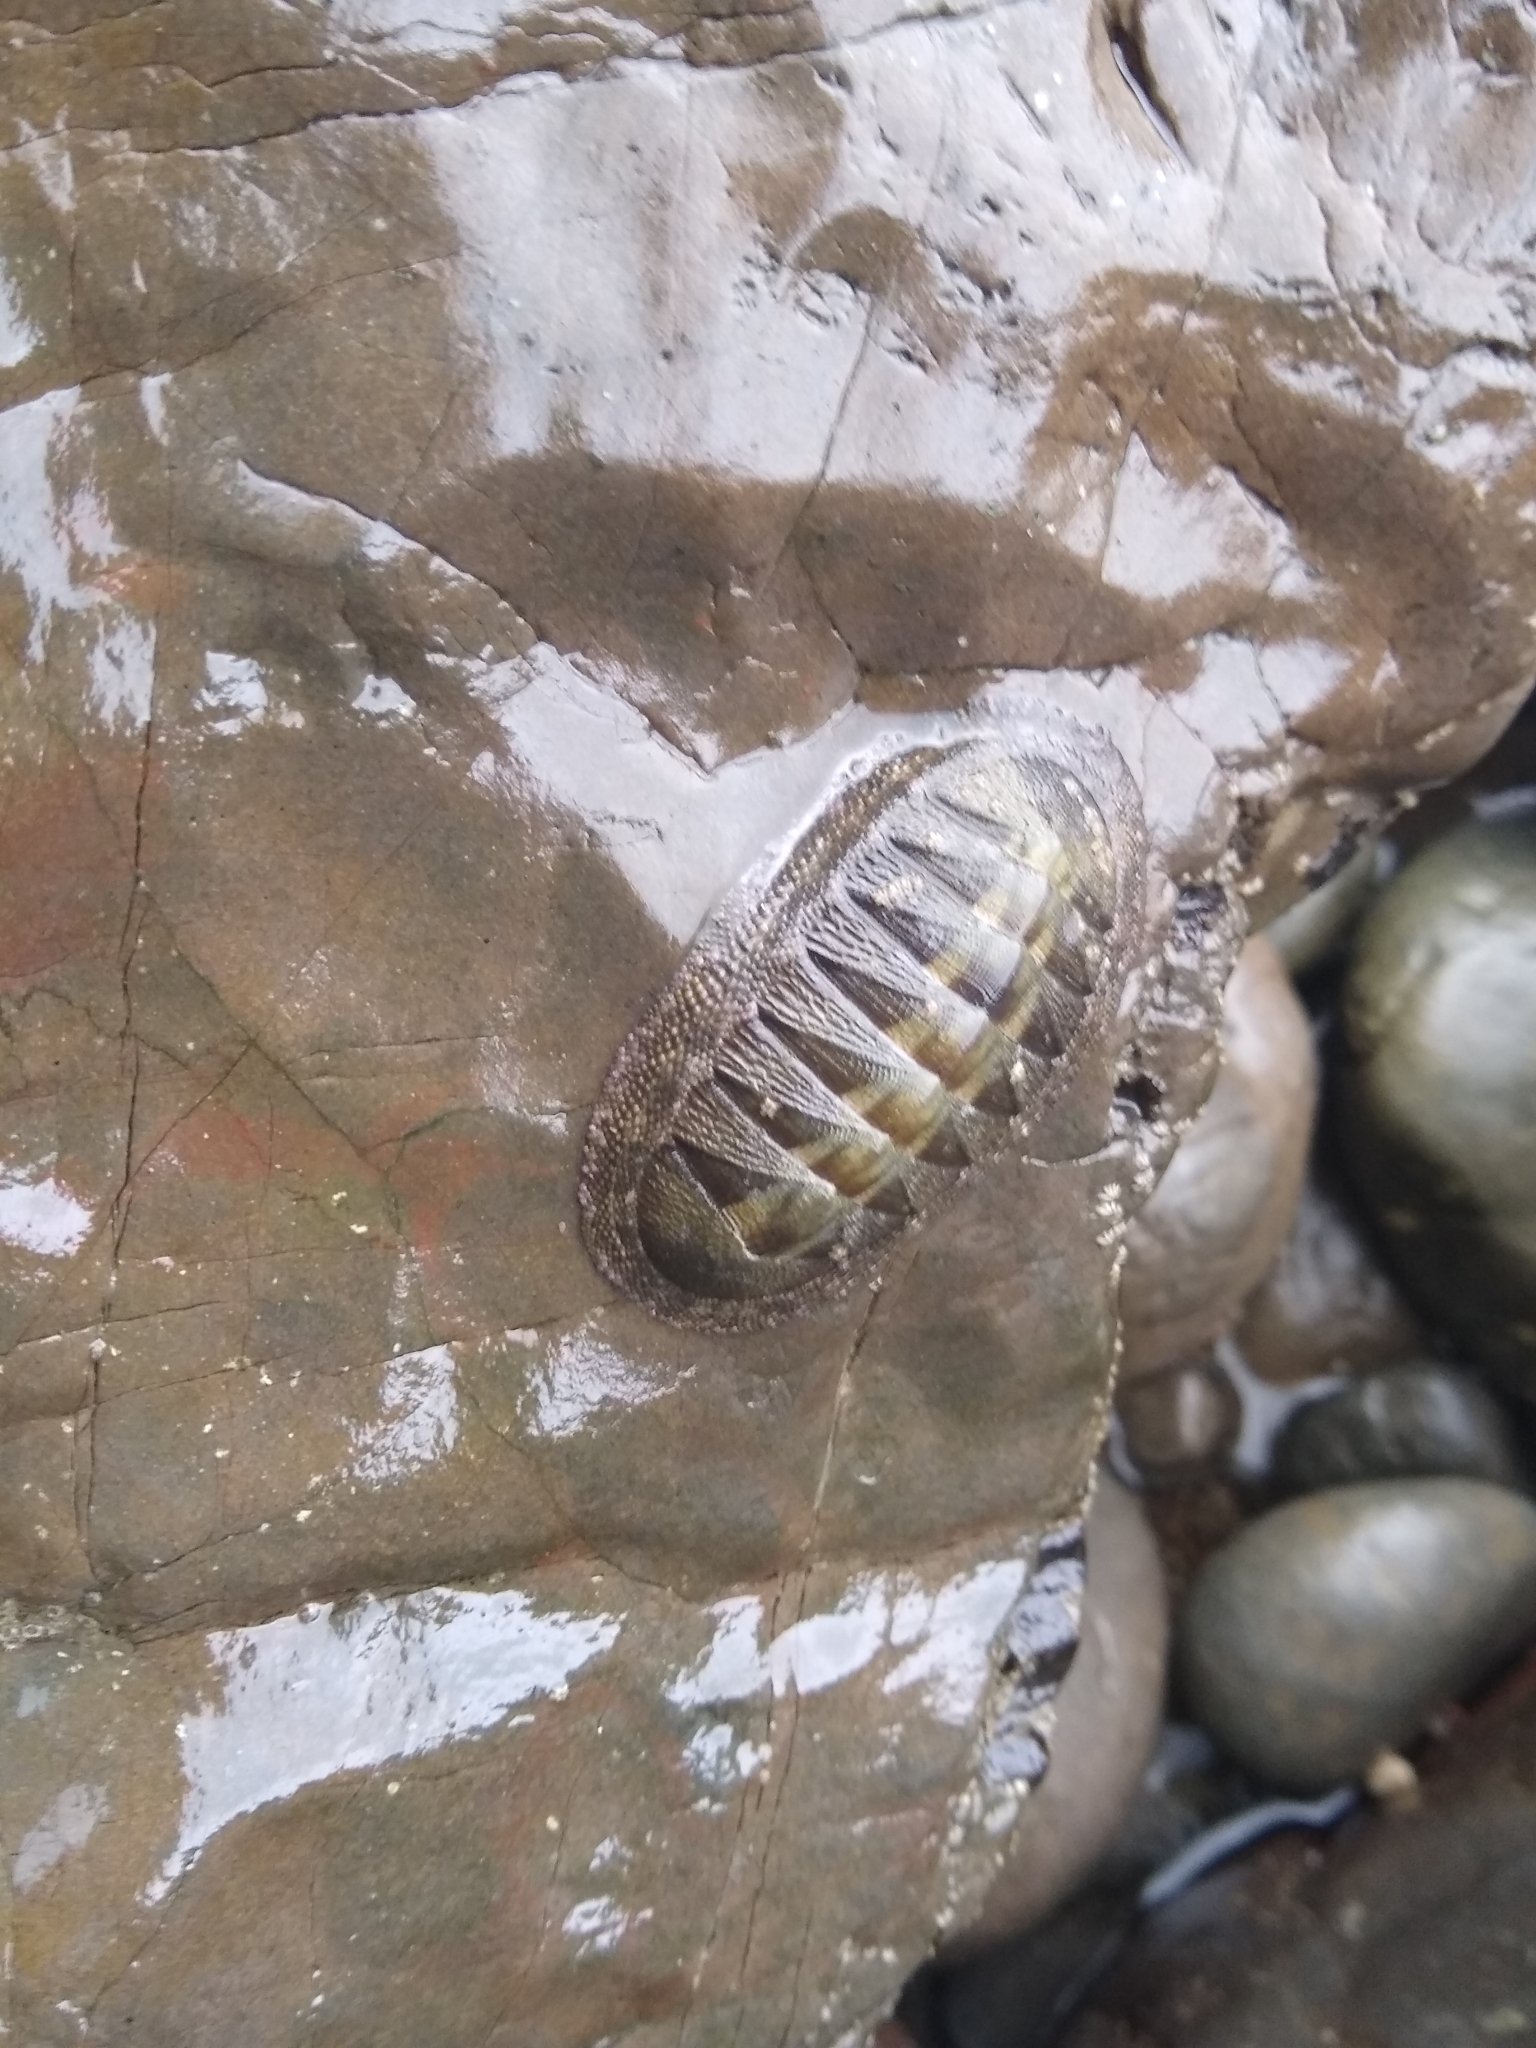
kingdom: Animalia
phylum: Mollusca
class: Polyplacophora
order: Chitonida
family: Chitonidae
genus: Chiton
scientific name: Chiton stokesii
